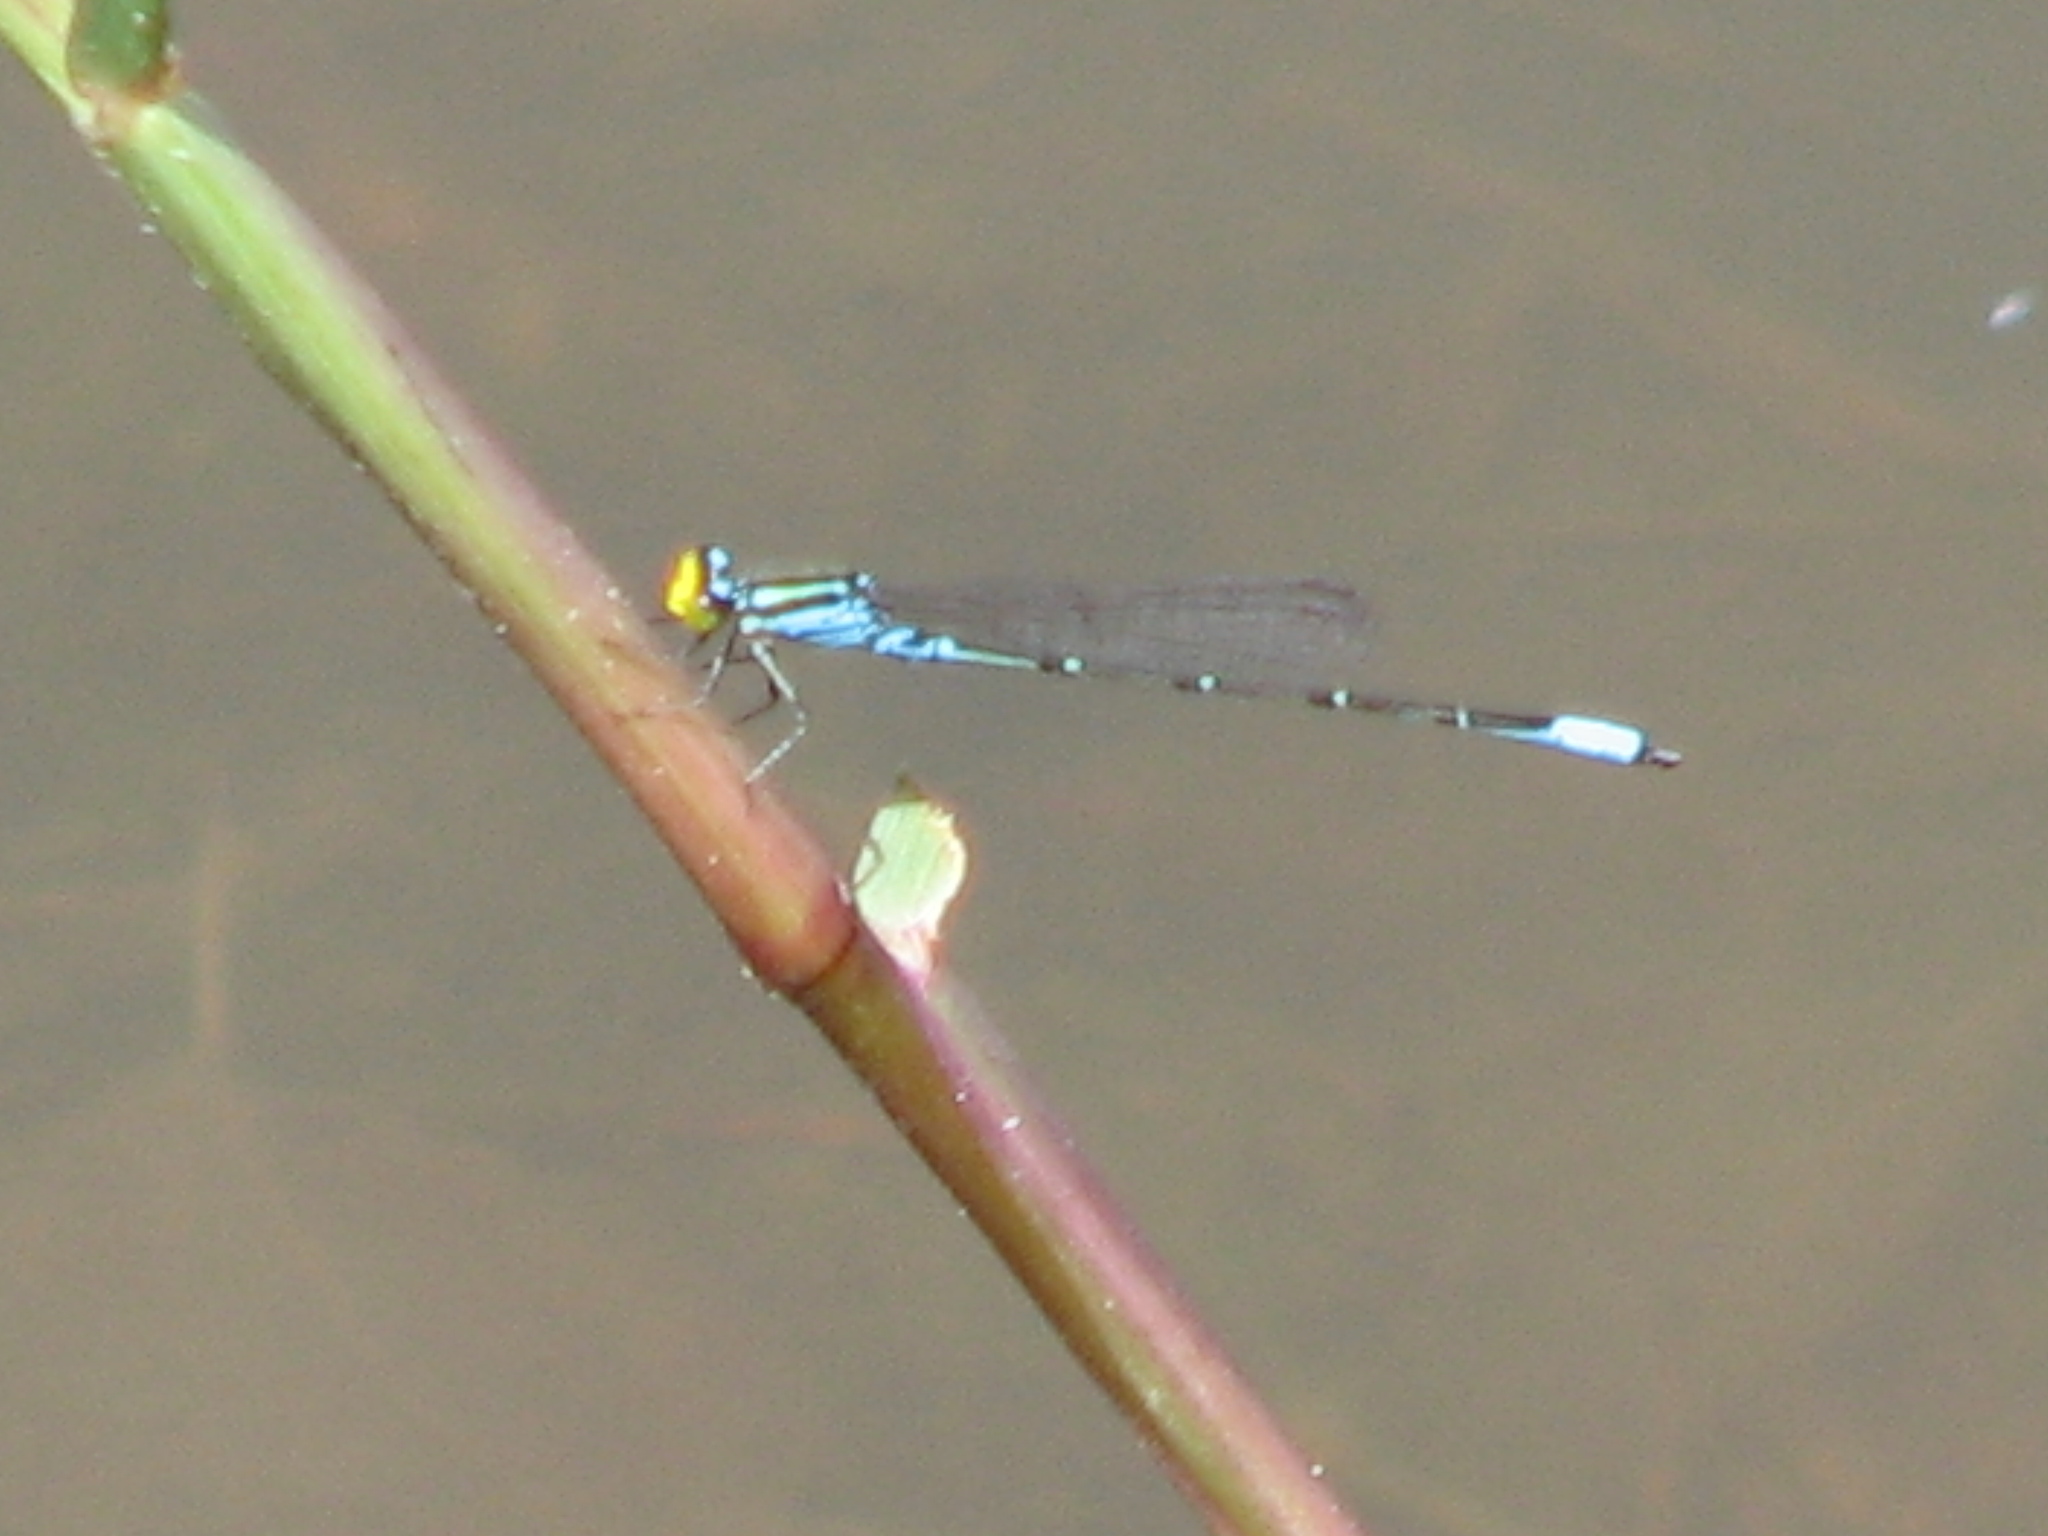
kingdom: Animalia
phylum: Arthropoda
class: Insecta
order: Odonata
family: Coenagrionidae
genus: Neoerythromma
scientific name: Neoerythromma cultellatum
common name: Caribbean yellowface
